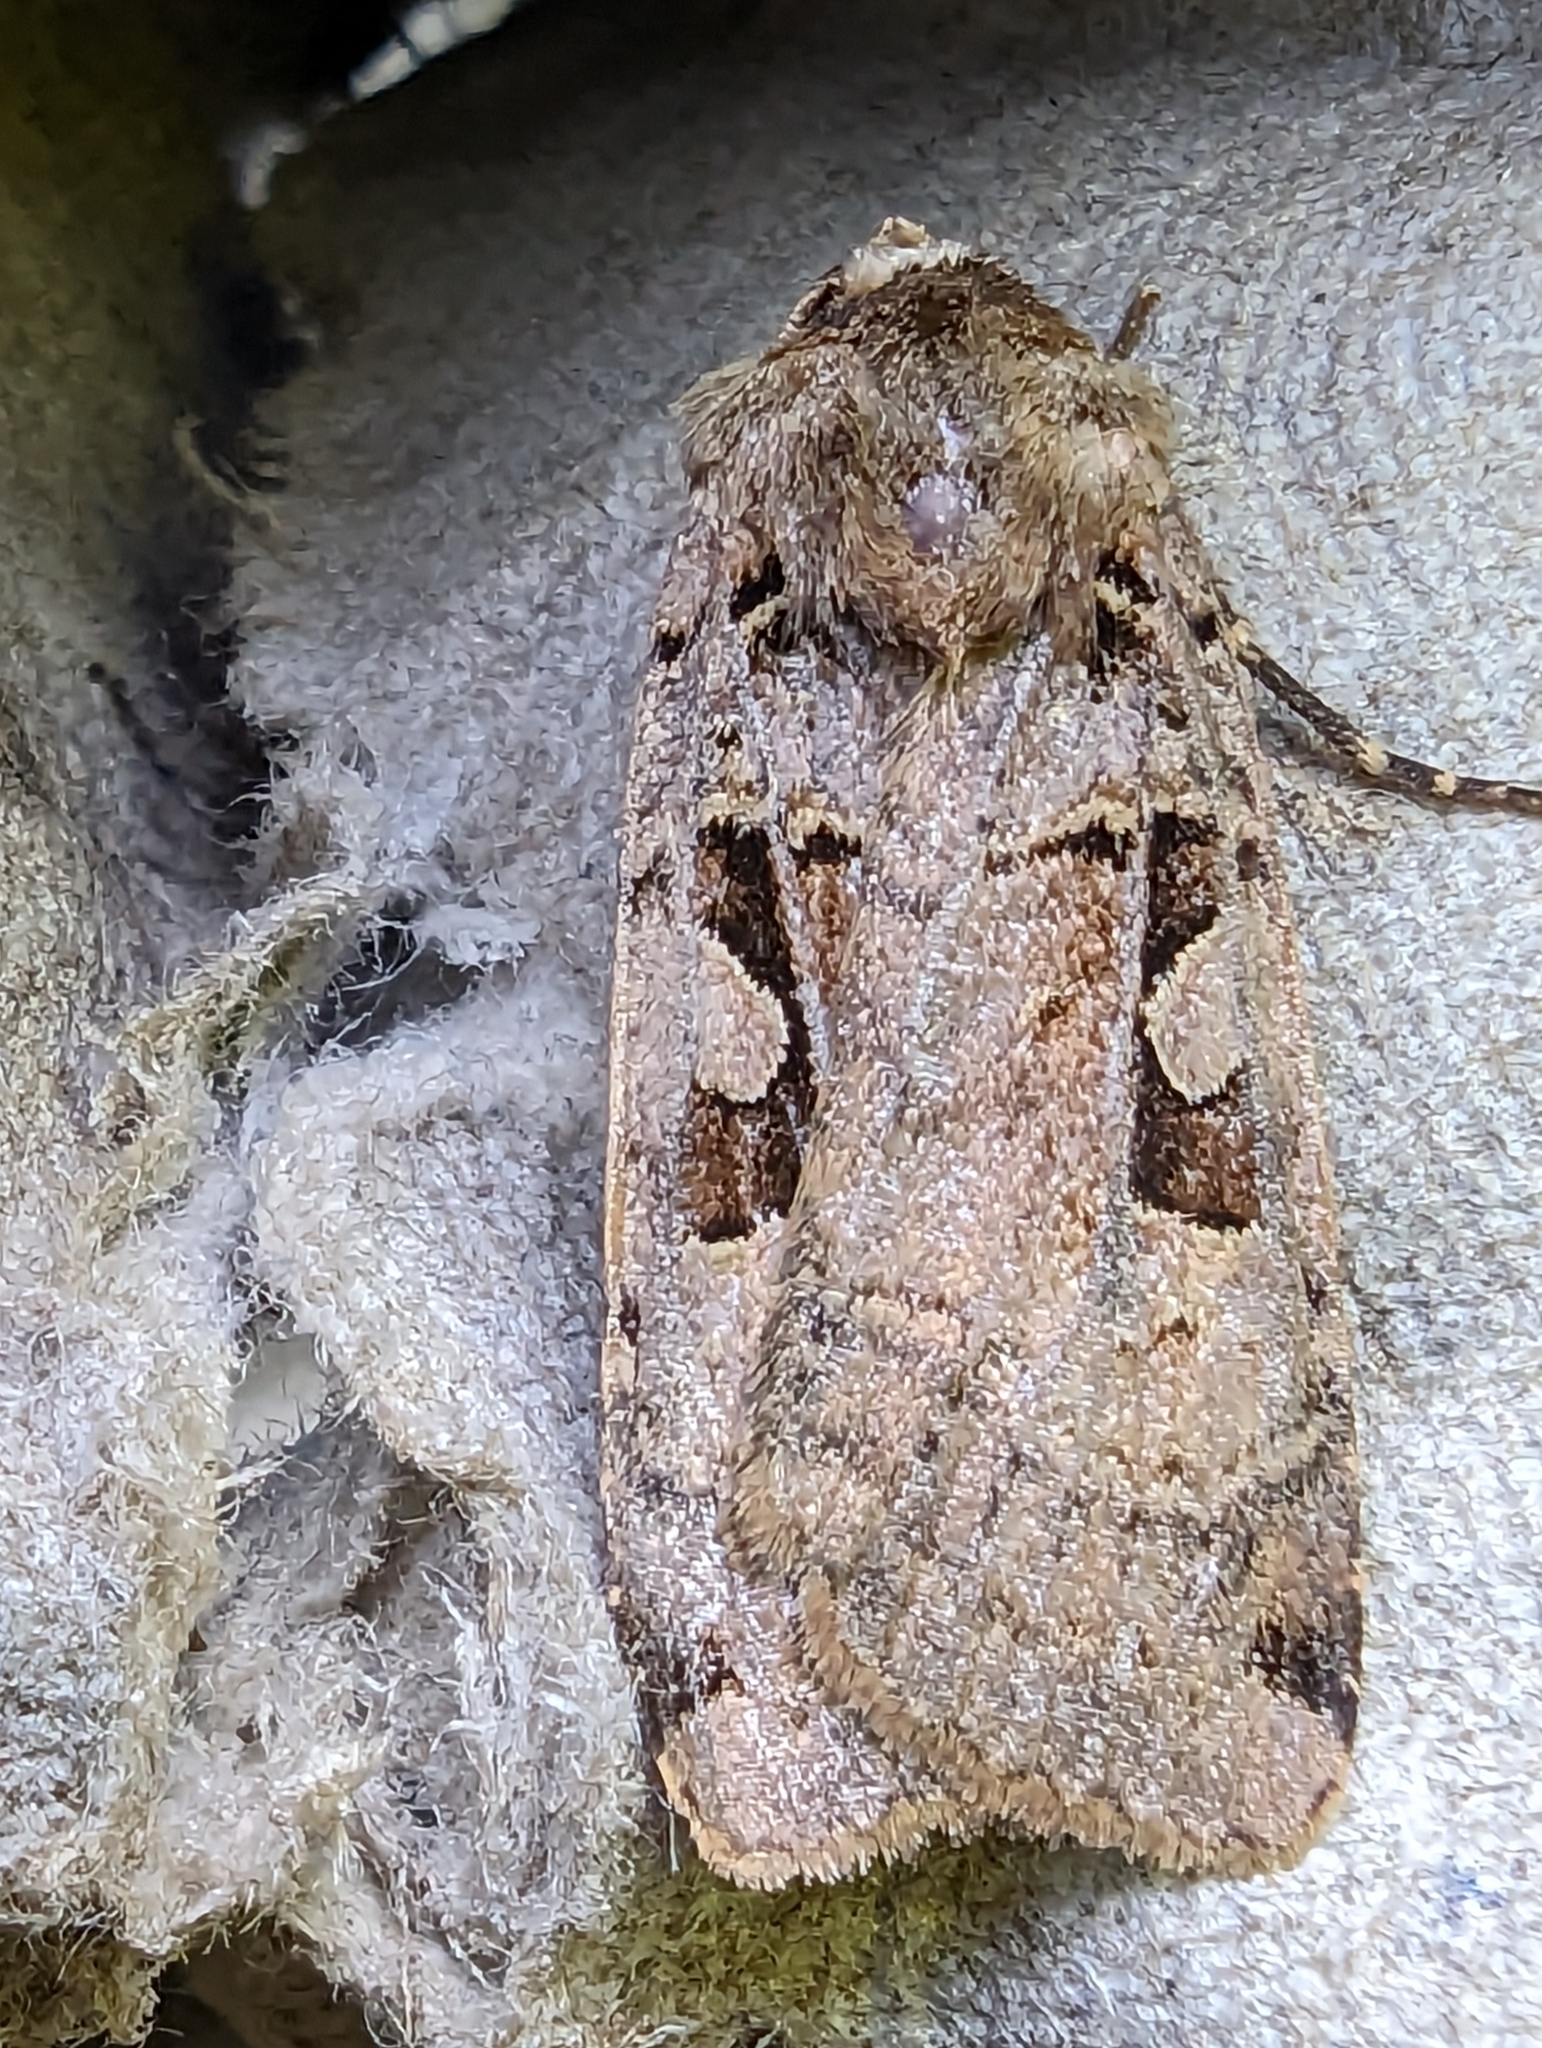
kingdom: Animalia
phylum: Arthropoda
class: Insecta
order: Lepidoptera
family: Noctuidae
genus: Xestia
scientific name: Xestia triangulum
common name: Double square-spot
